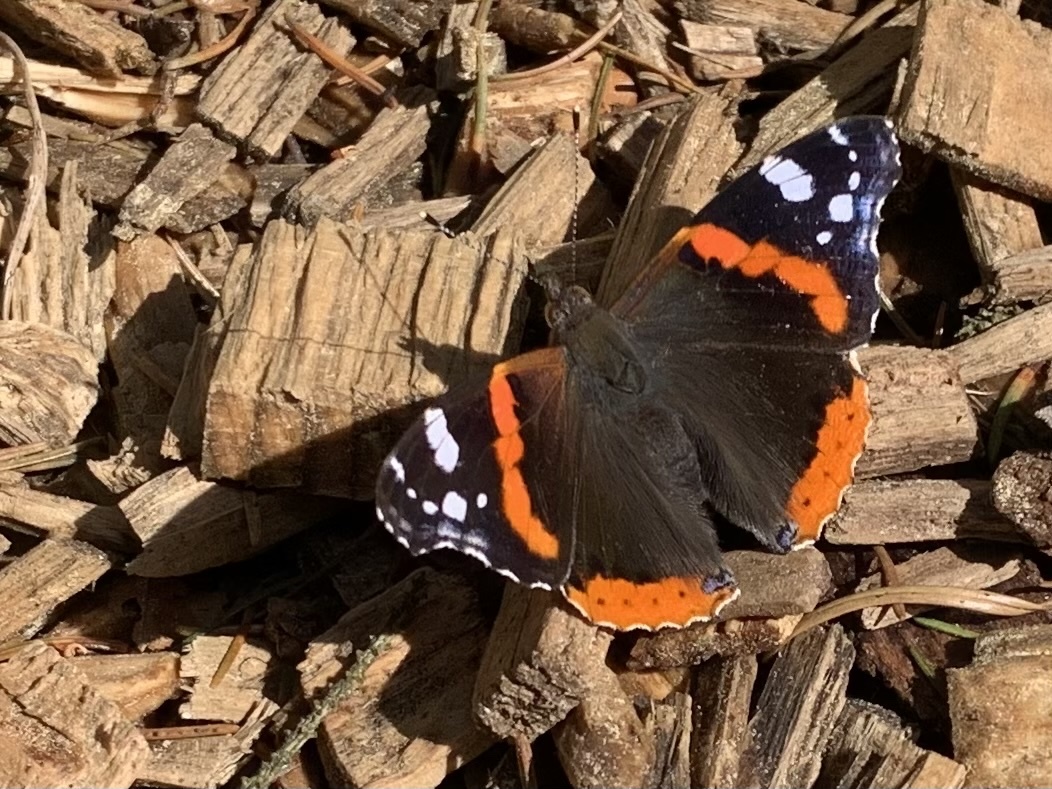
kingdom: Animalia
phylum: Arthropoda
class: Insecta
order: Lepidoptera
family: Nymphalidae
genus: Vanessa
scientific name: Vanessa atalanta
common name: Red admiral
